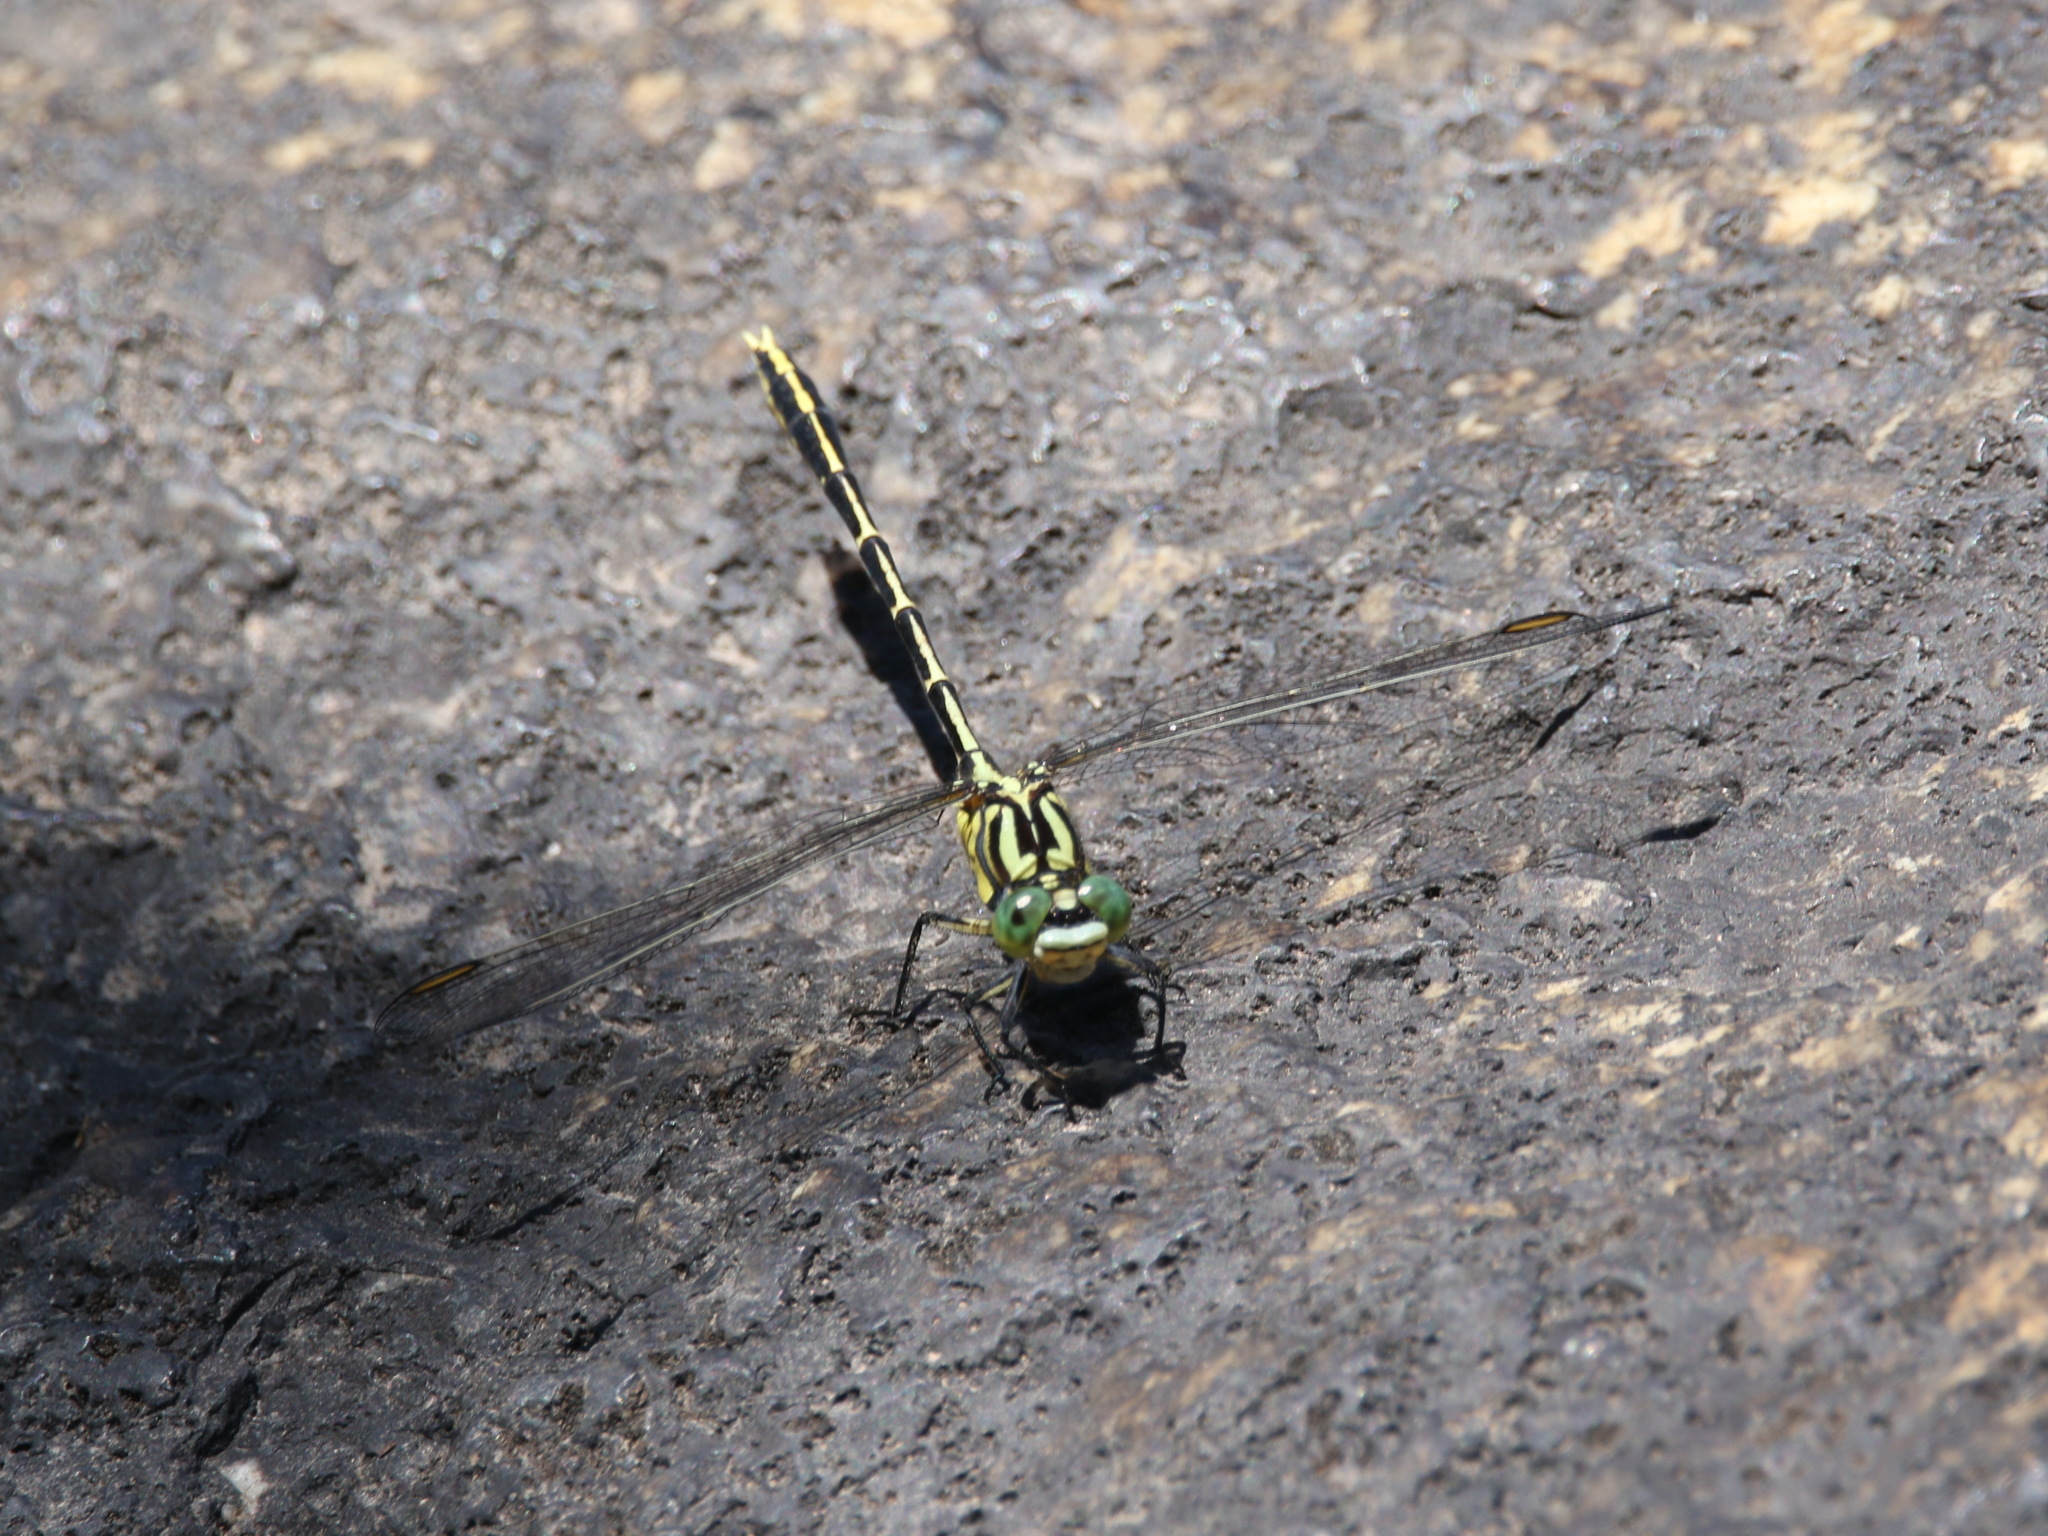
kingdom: Animalia
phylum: Arthropoda
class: Insecta
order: Odonata
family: Gomphidae
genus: Austrogomphus
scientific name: Austrogomphus guerini
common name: Yellow-striped hunter
